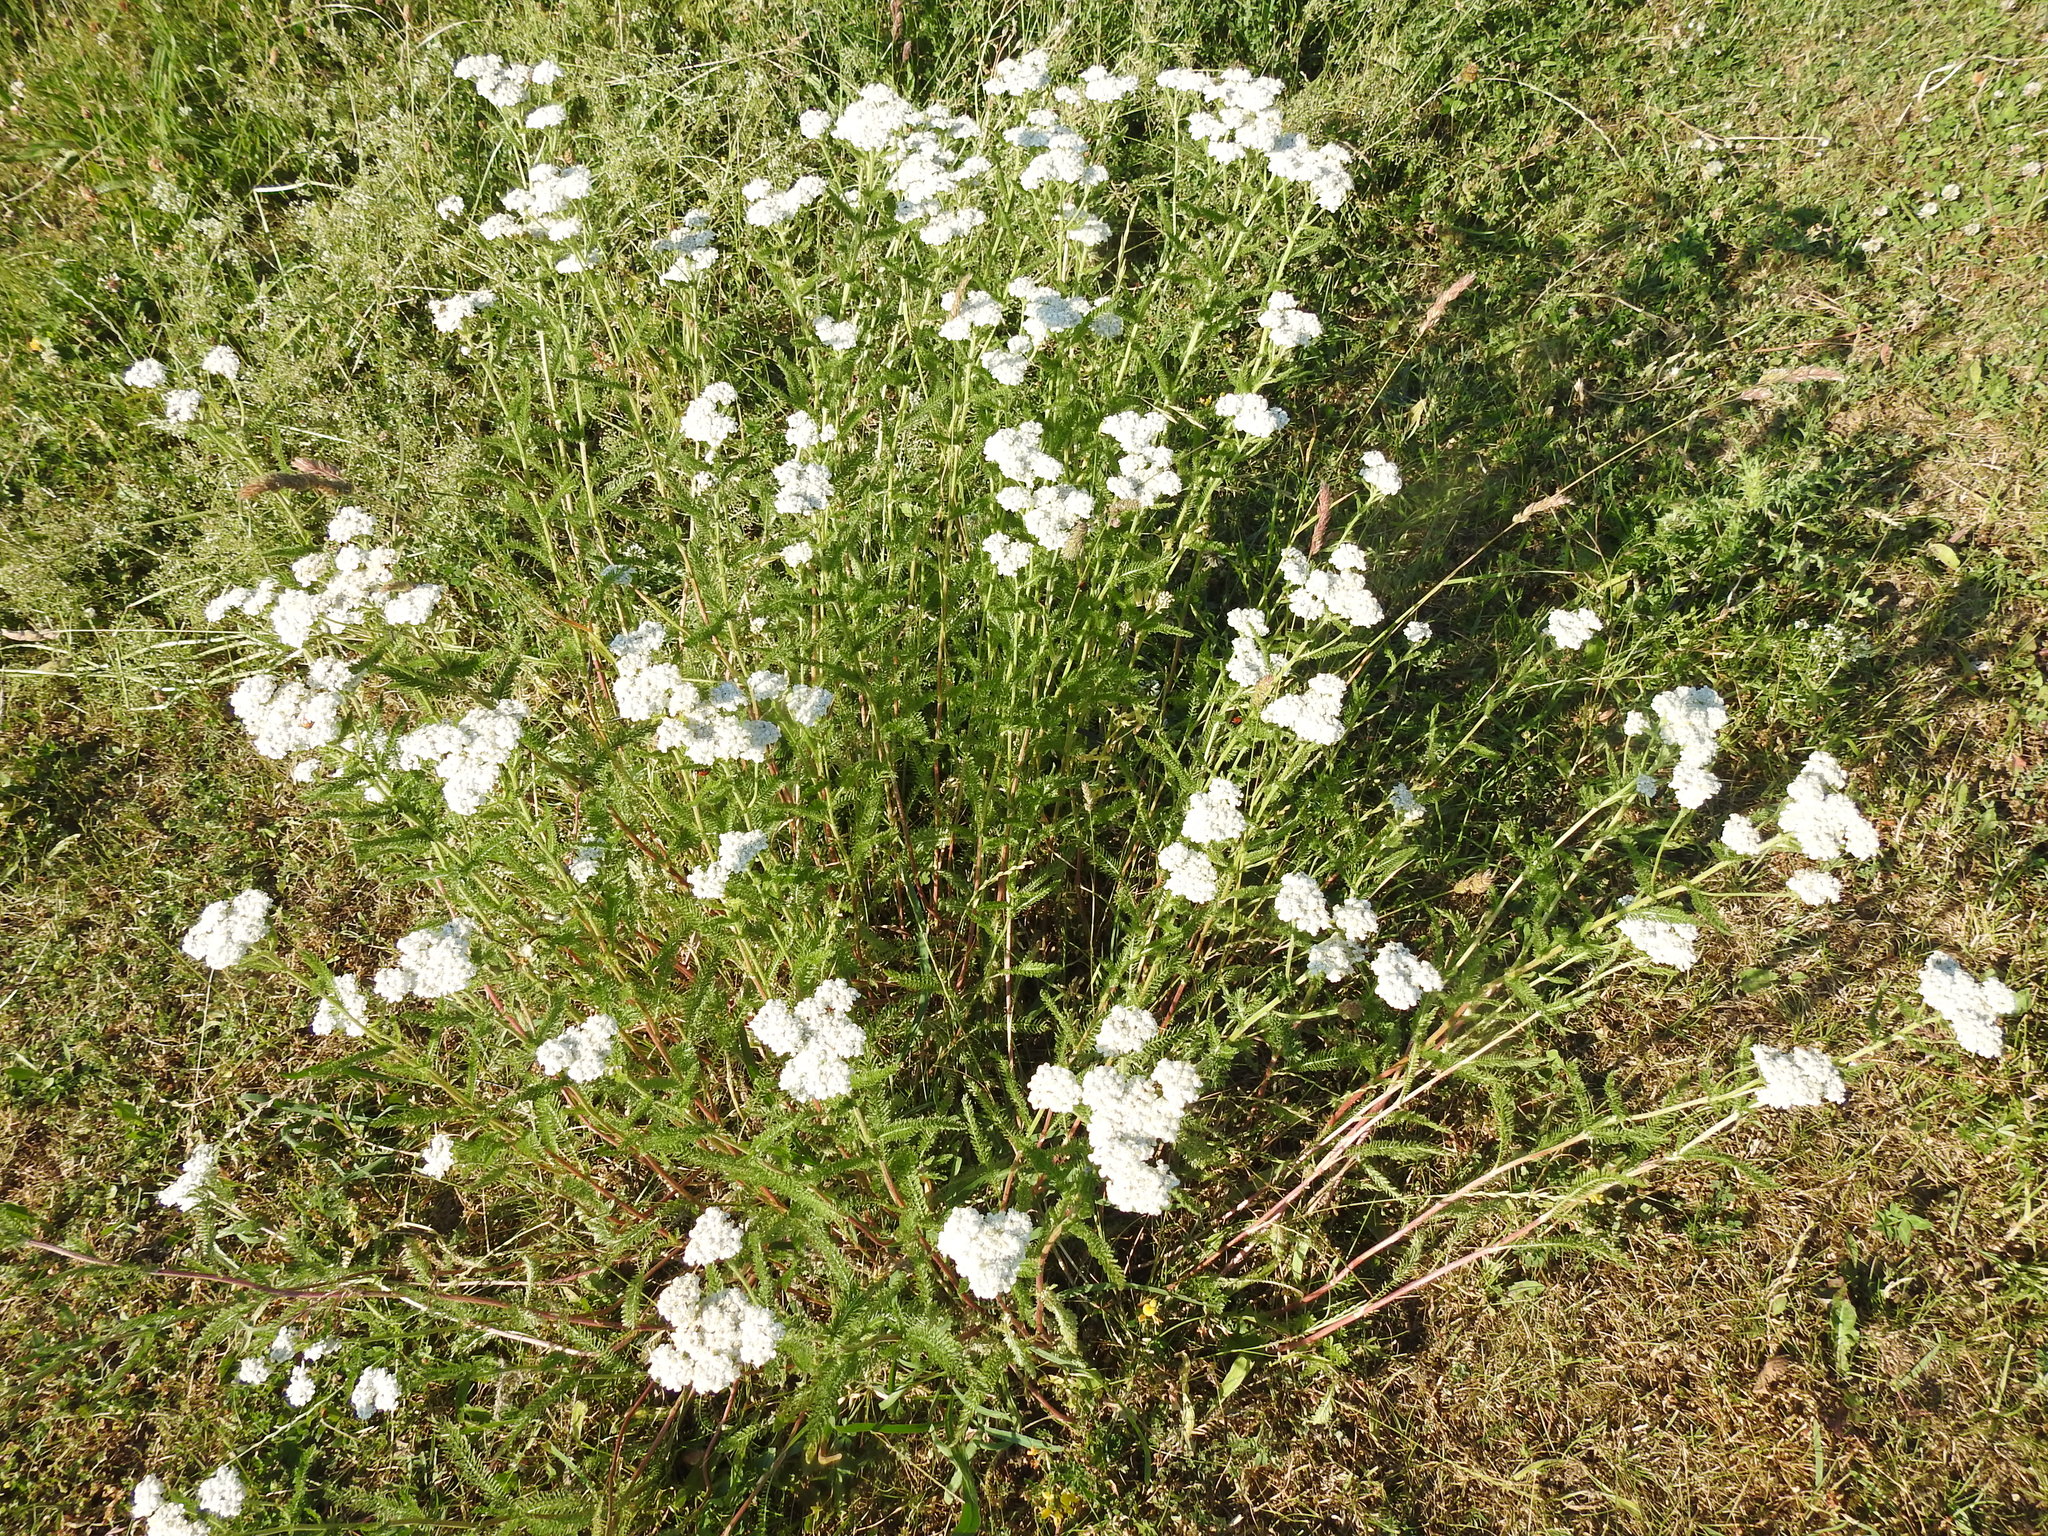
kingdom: Plantae
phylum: Tracheophyta
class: Magnoliopsida
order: Asterales
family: Asteraceae
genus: Achillea
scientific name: Achillea millefolium
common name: Yarrow
